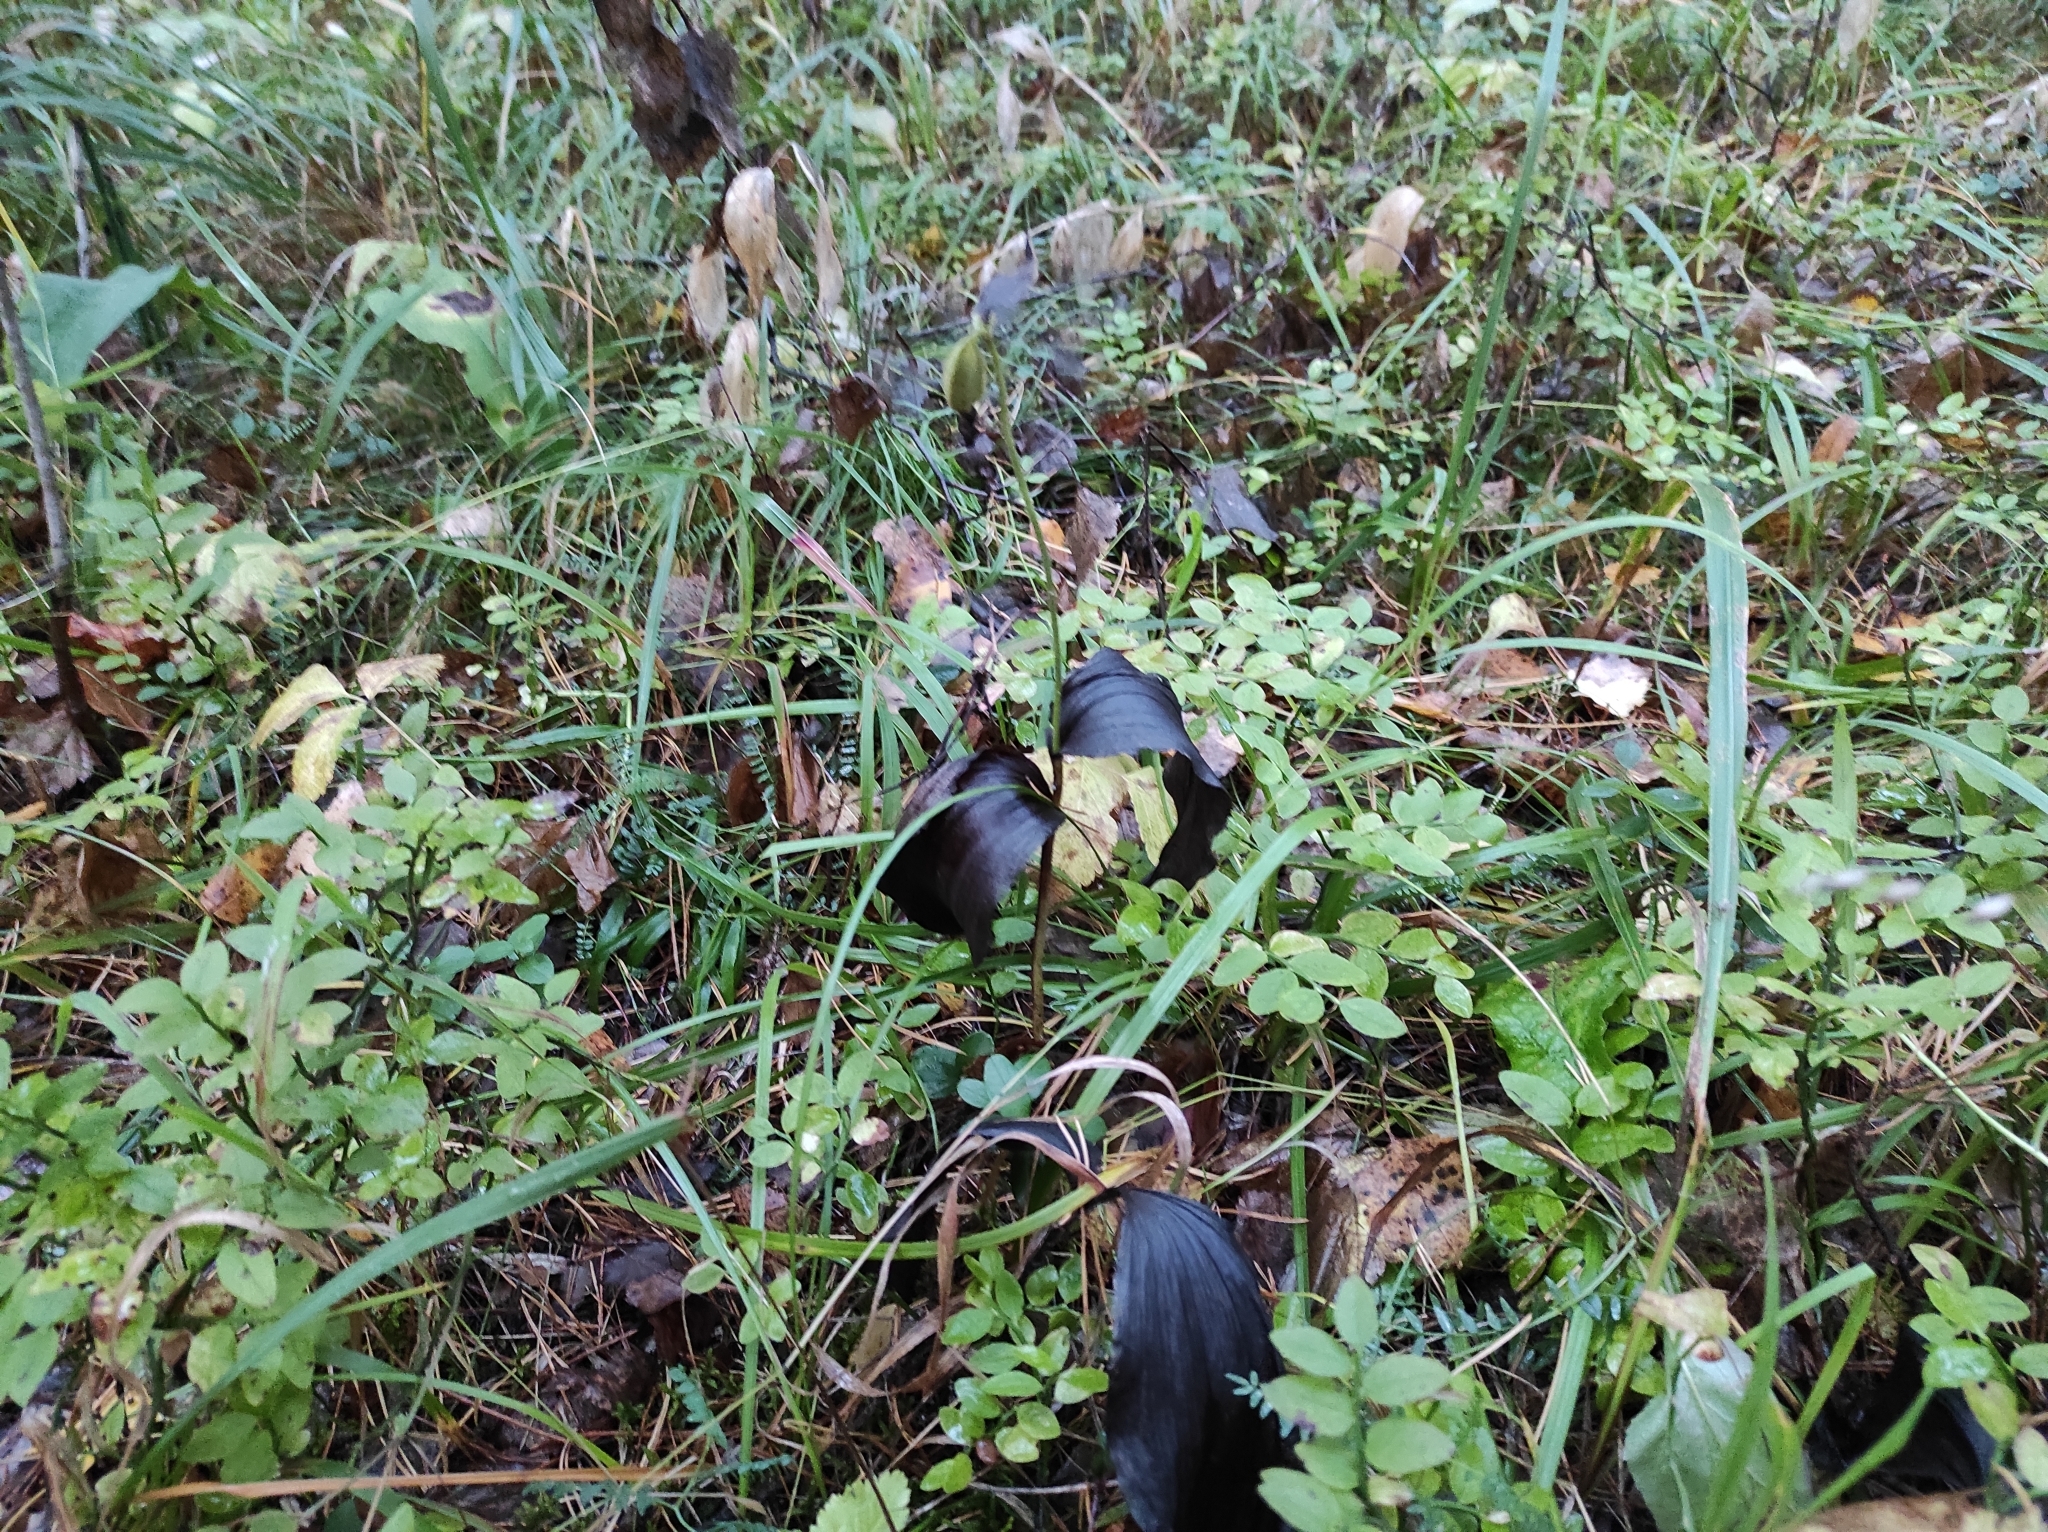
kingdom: Plantae
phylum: Tracheophyta
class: Liliopsida
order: Asparagales
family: Orchidaceae
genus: Cypripedium
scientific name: Cypripedium guttatum
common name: Pink lady slipper
